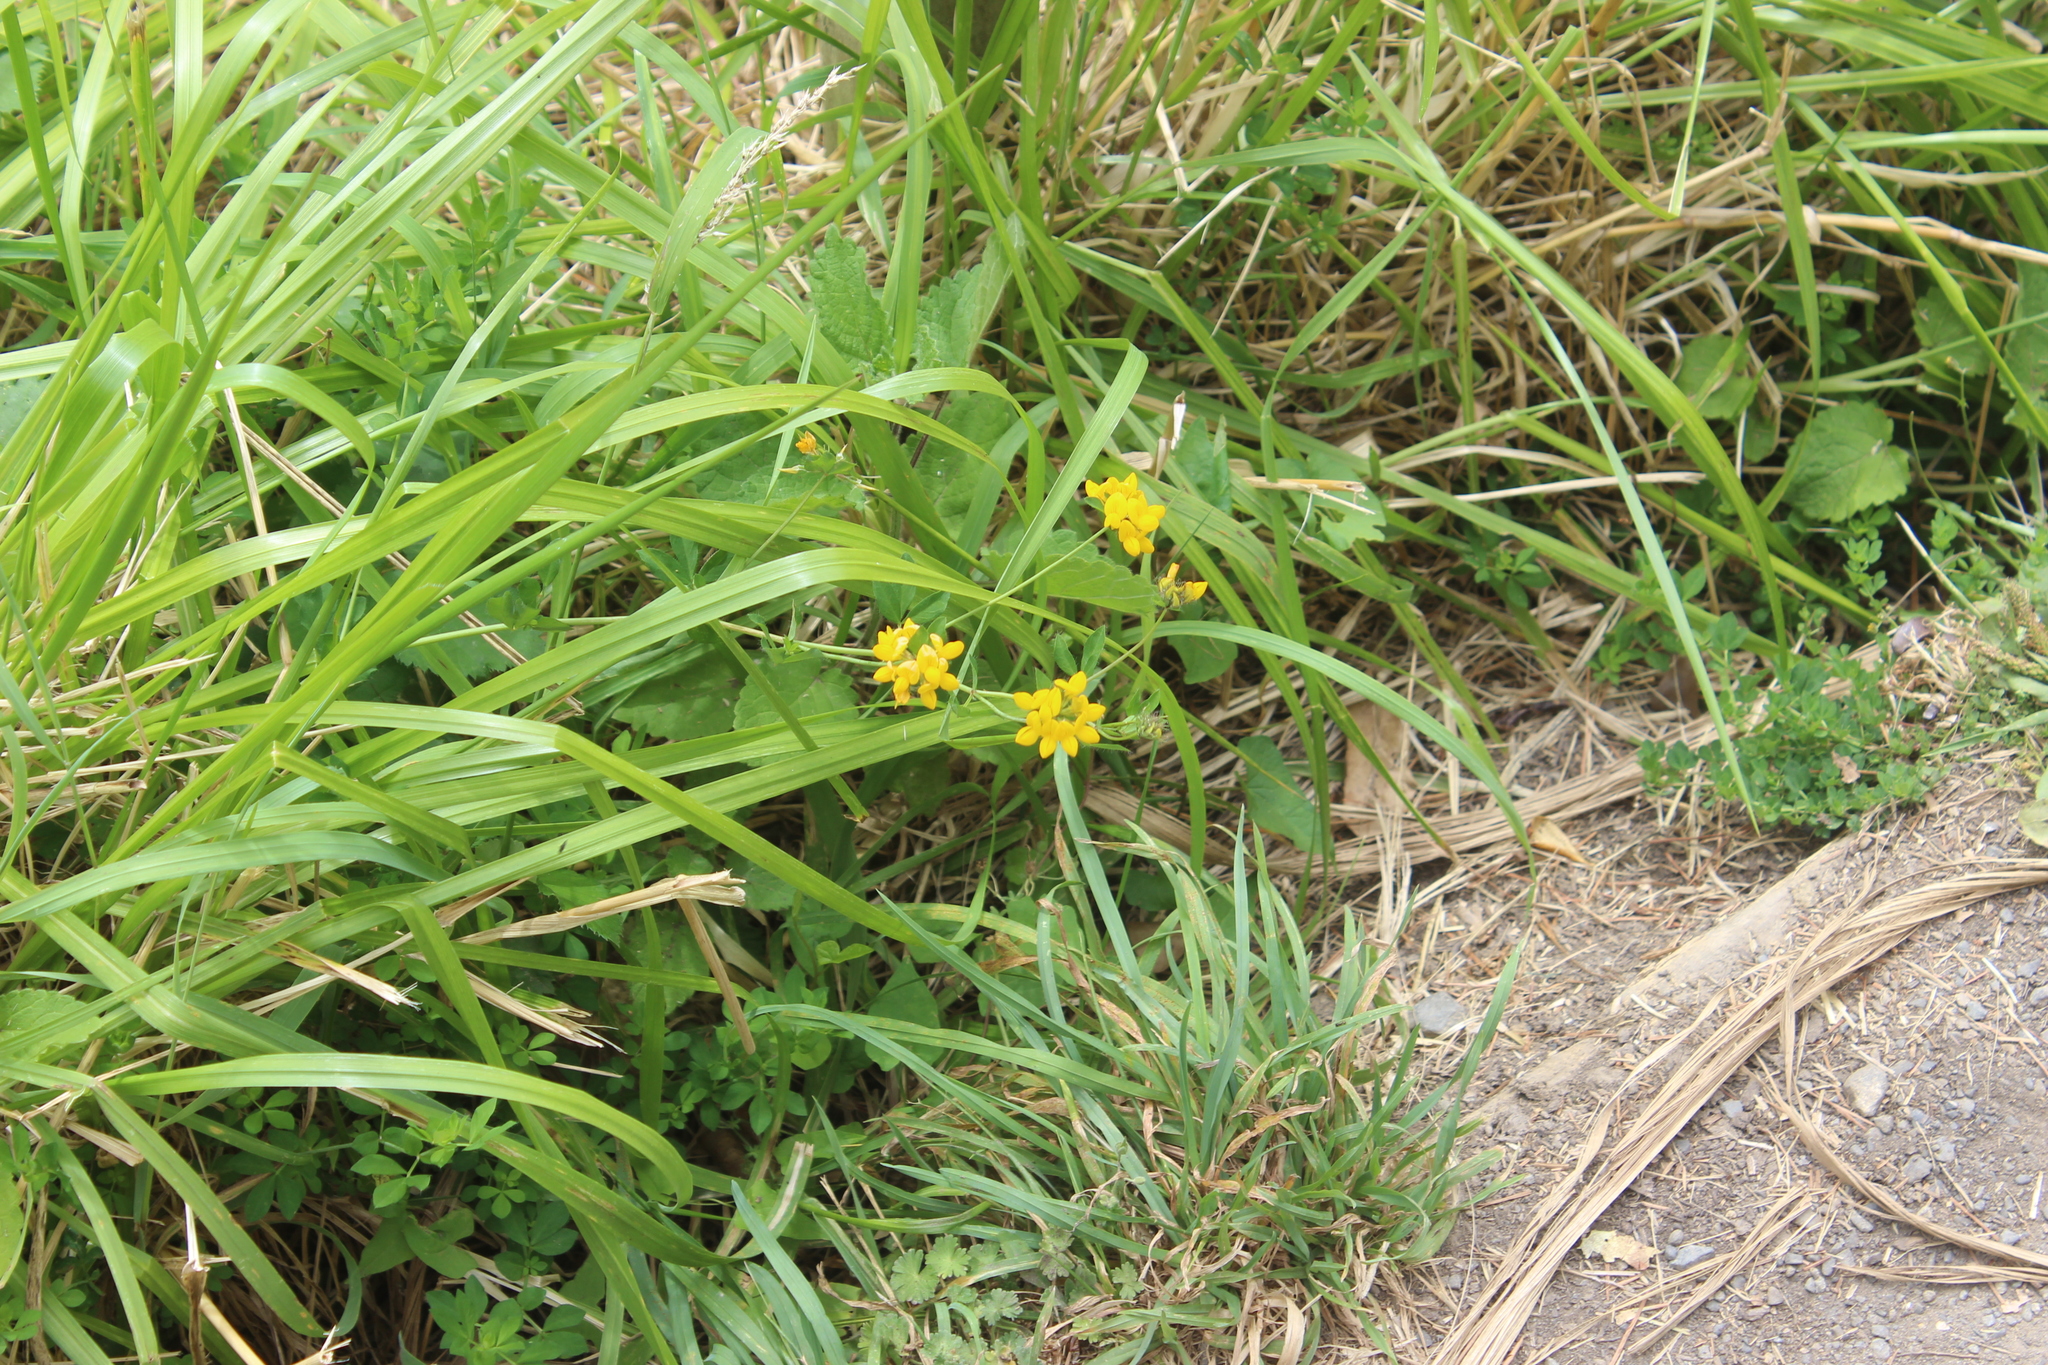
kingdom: Plantae
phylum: Tracheophyta
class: Magnoliopsida
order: Fabales
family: Fabaceae
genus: Lotus
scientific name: Lotus pedunculatus
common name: Greater birdsfoot-trefoil
